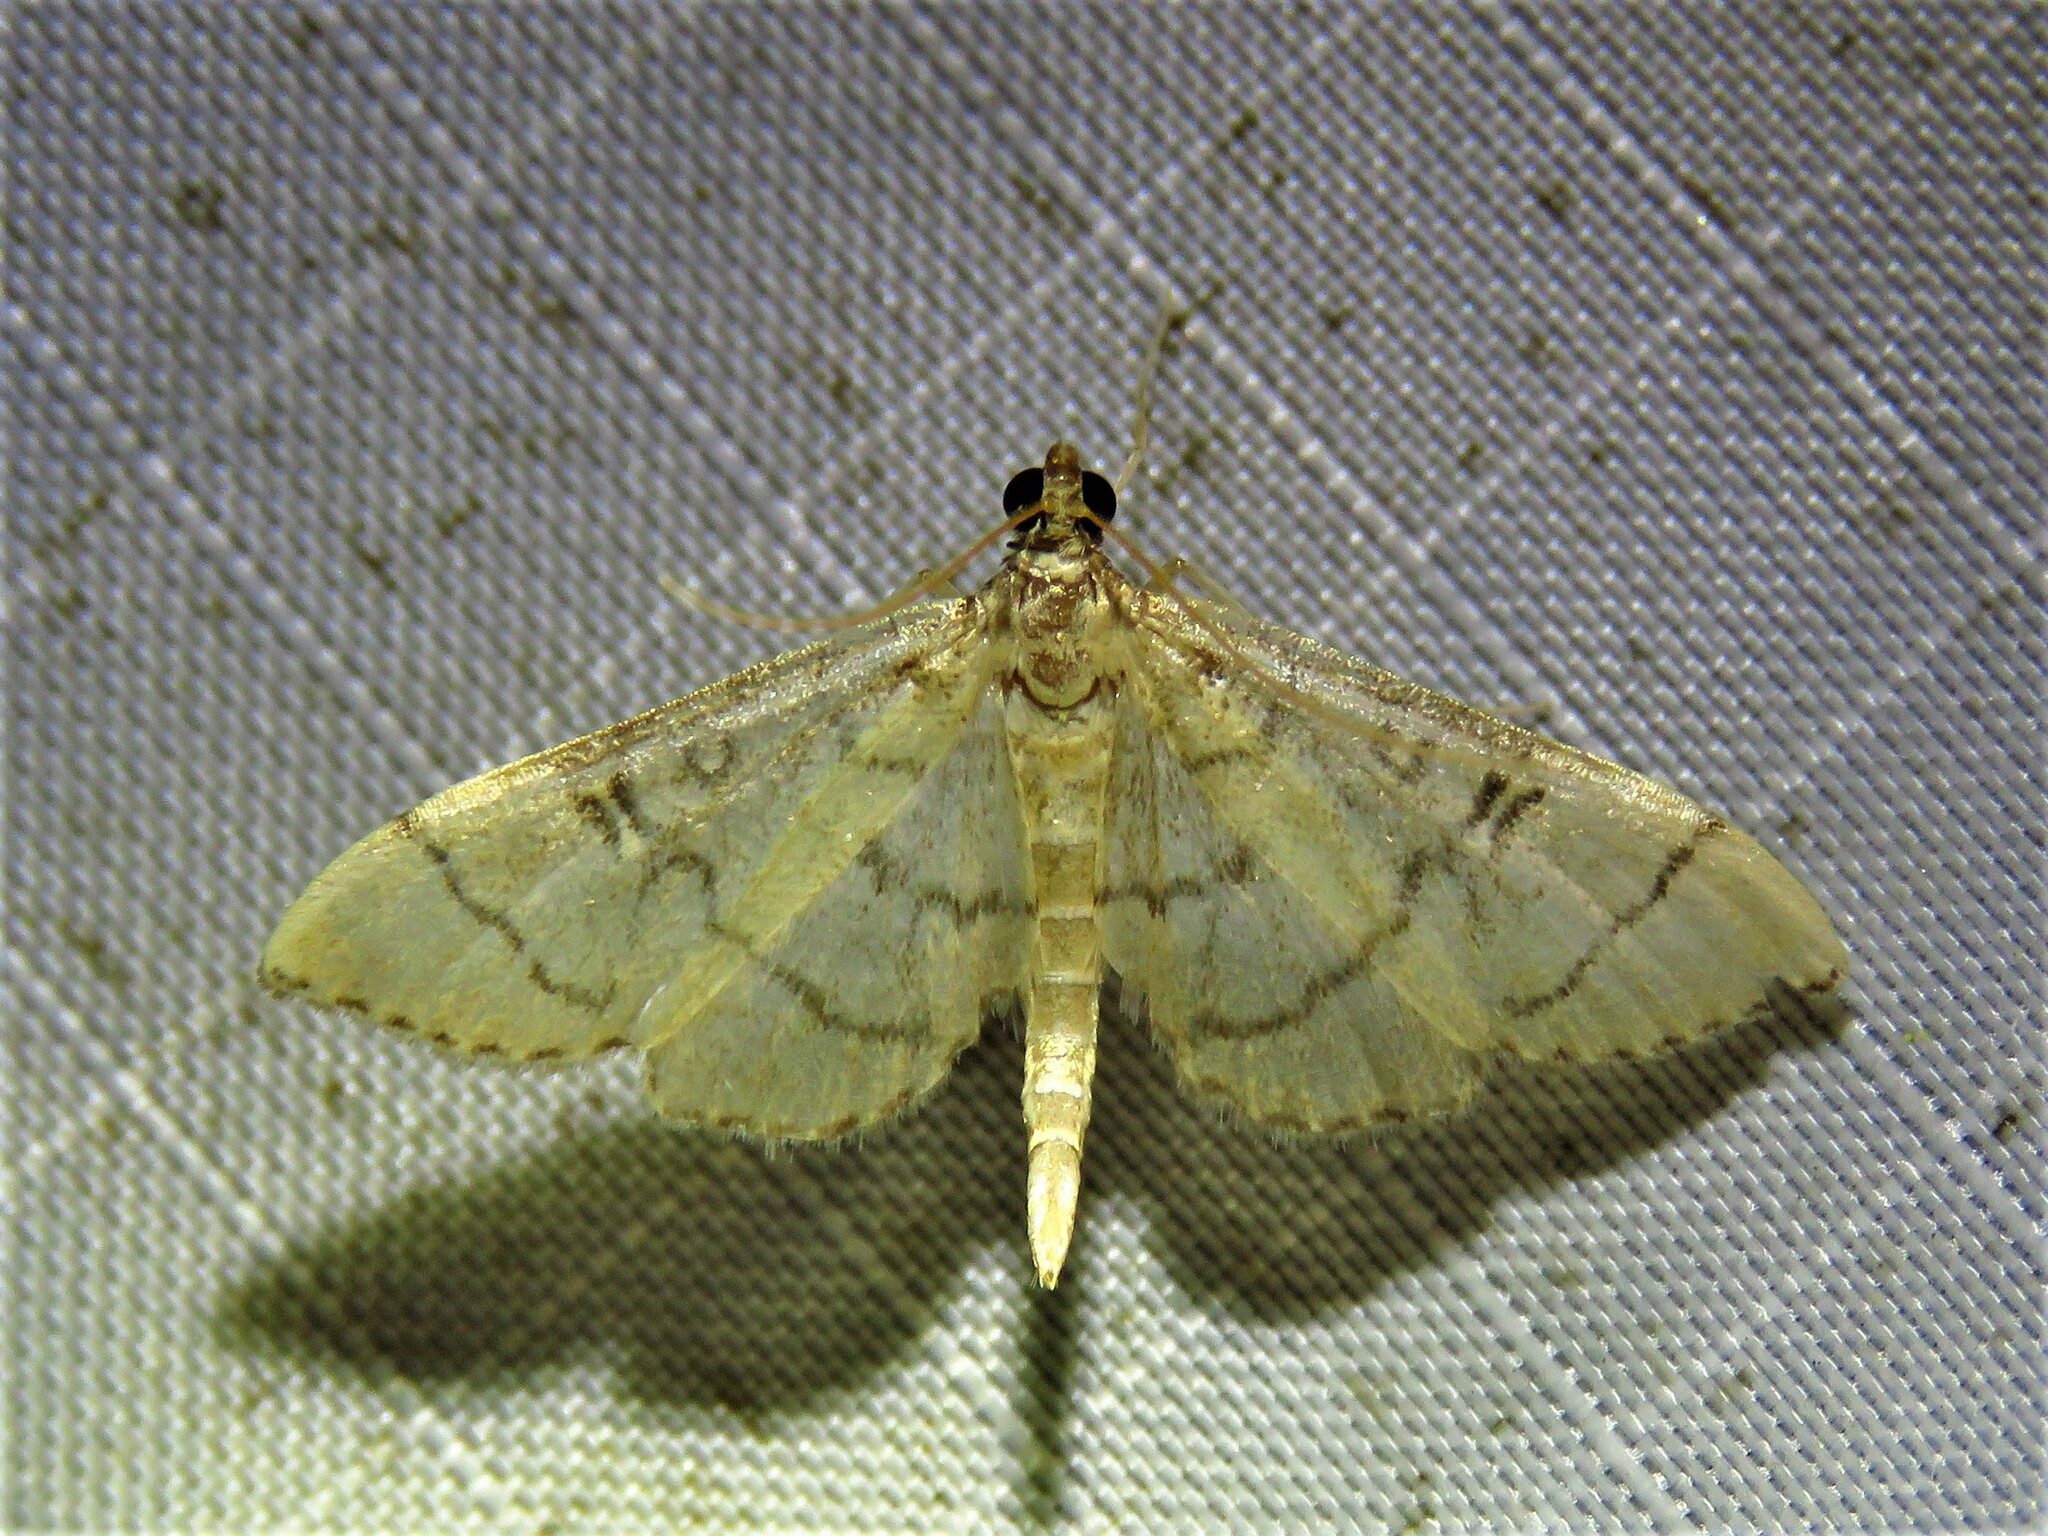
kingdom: Animalia
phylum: Arthropoda
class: Insecta
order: Lepidoptera
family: Crambidae
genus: Lamprosema
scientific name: Lamprosema Blepharomastix ranalis
